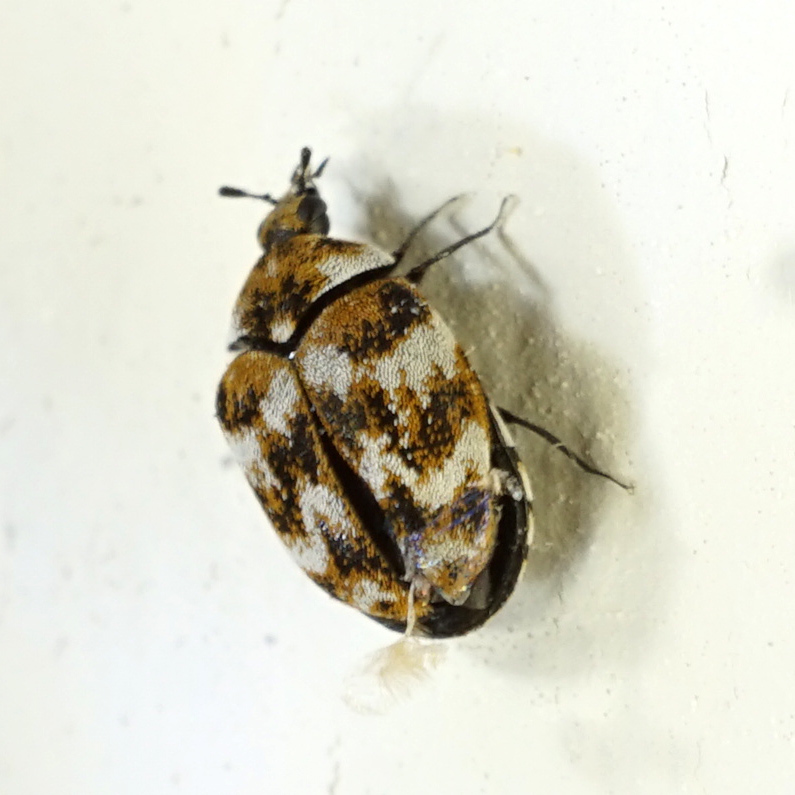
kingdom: Animalia
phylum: Arthropoda
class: Insecta
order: Coleoptera
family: Dermestidae
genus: Anthrenus
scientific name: Anthrenus verbasci
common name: Varied carpet beetle
